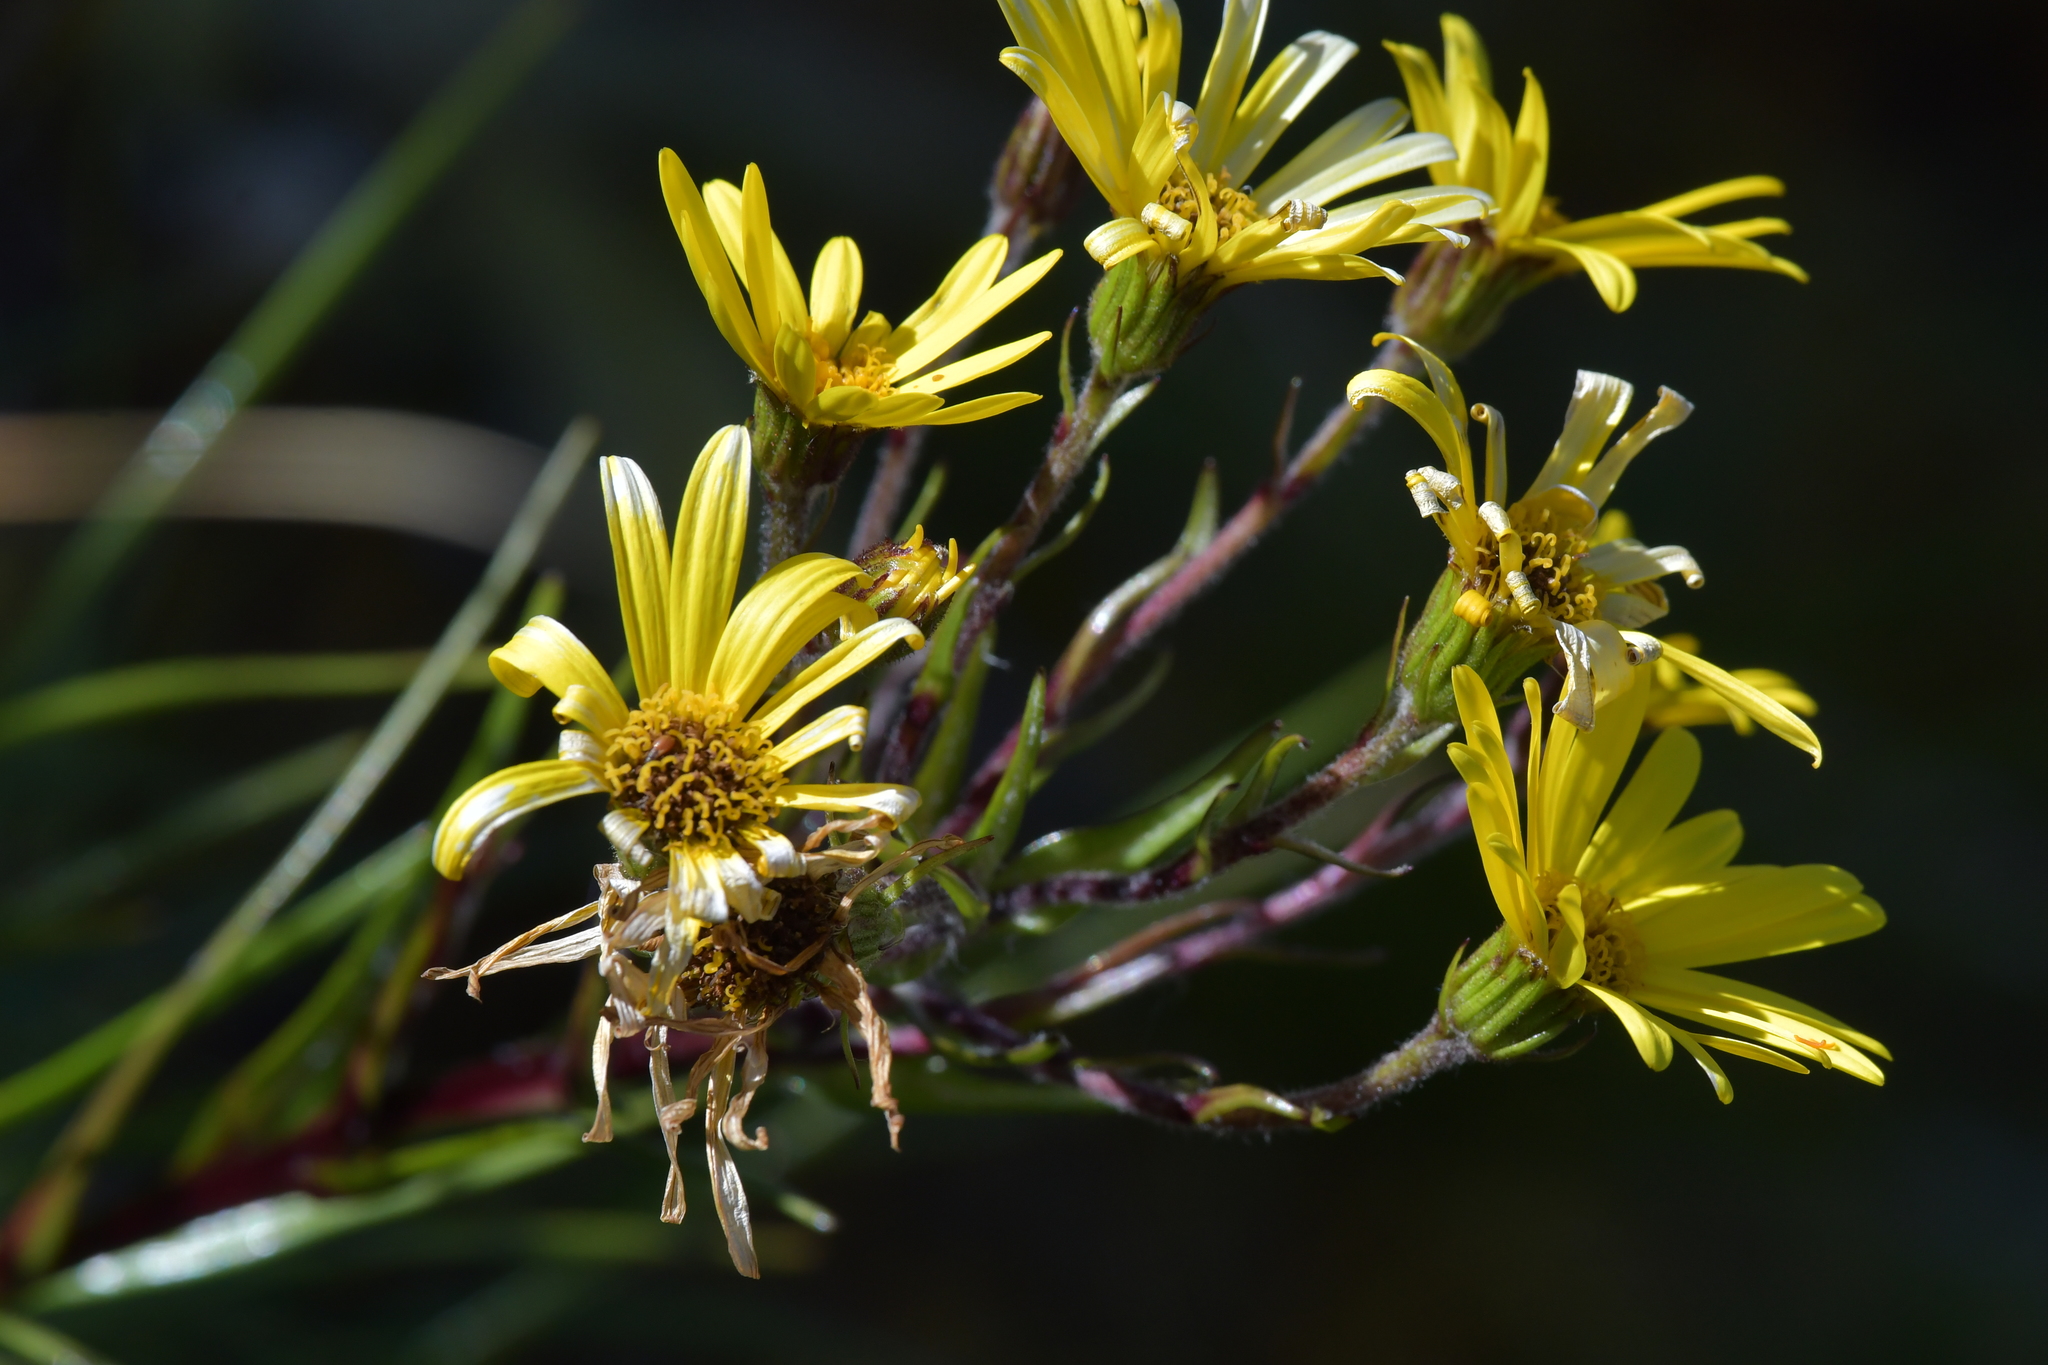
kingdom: Plantae
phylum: Tracheophyta
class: Magnoliopsida
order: Asterales
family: Asteraceae
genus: Dolichoglottis
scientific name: Dolichoglottis lyallii
